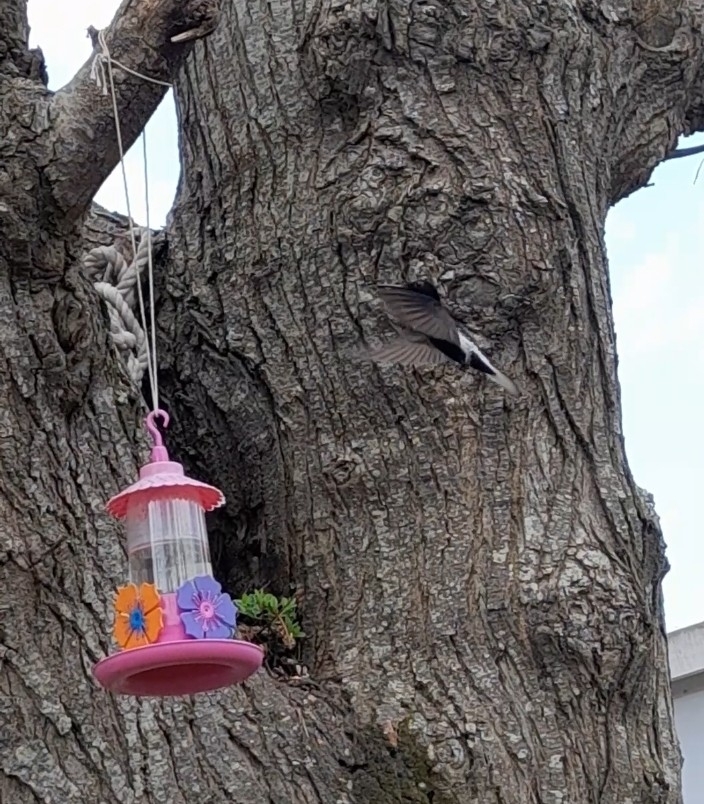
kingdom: Animalia
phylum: Chordata
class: Aves
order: Apodiformes
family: Trochilidae
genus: Florisuga
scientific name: Florisuga fusca
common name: Black jacobin
